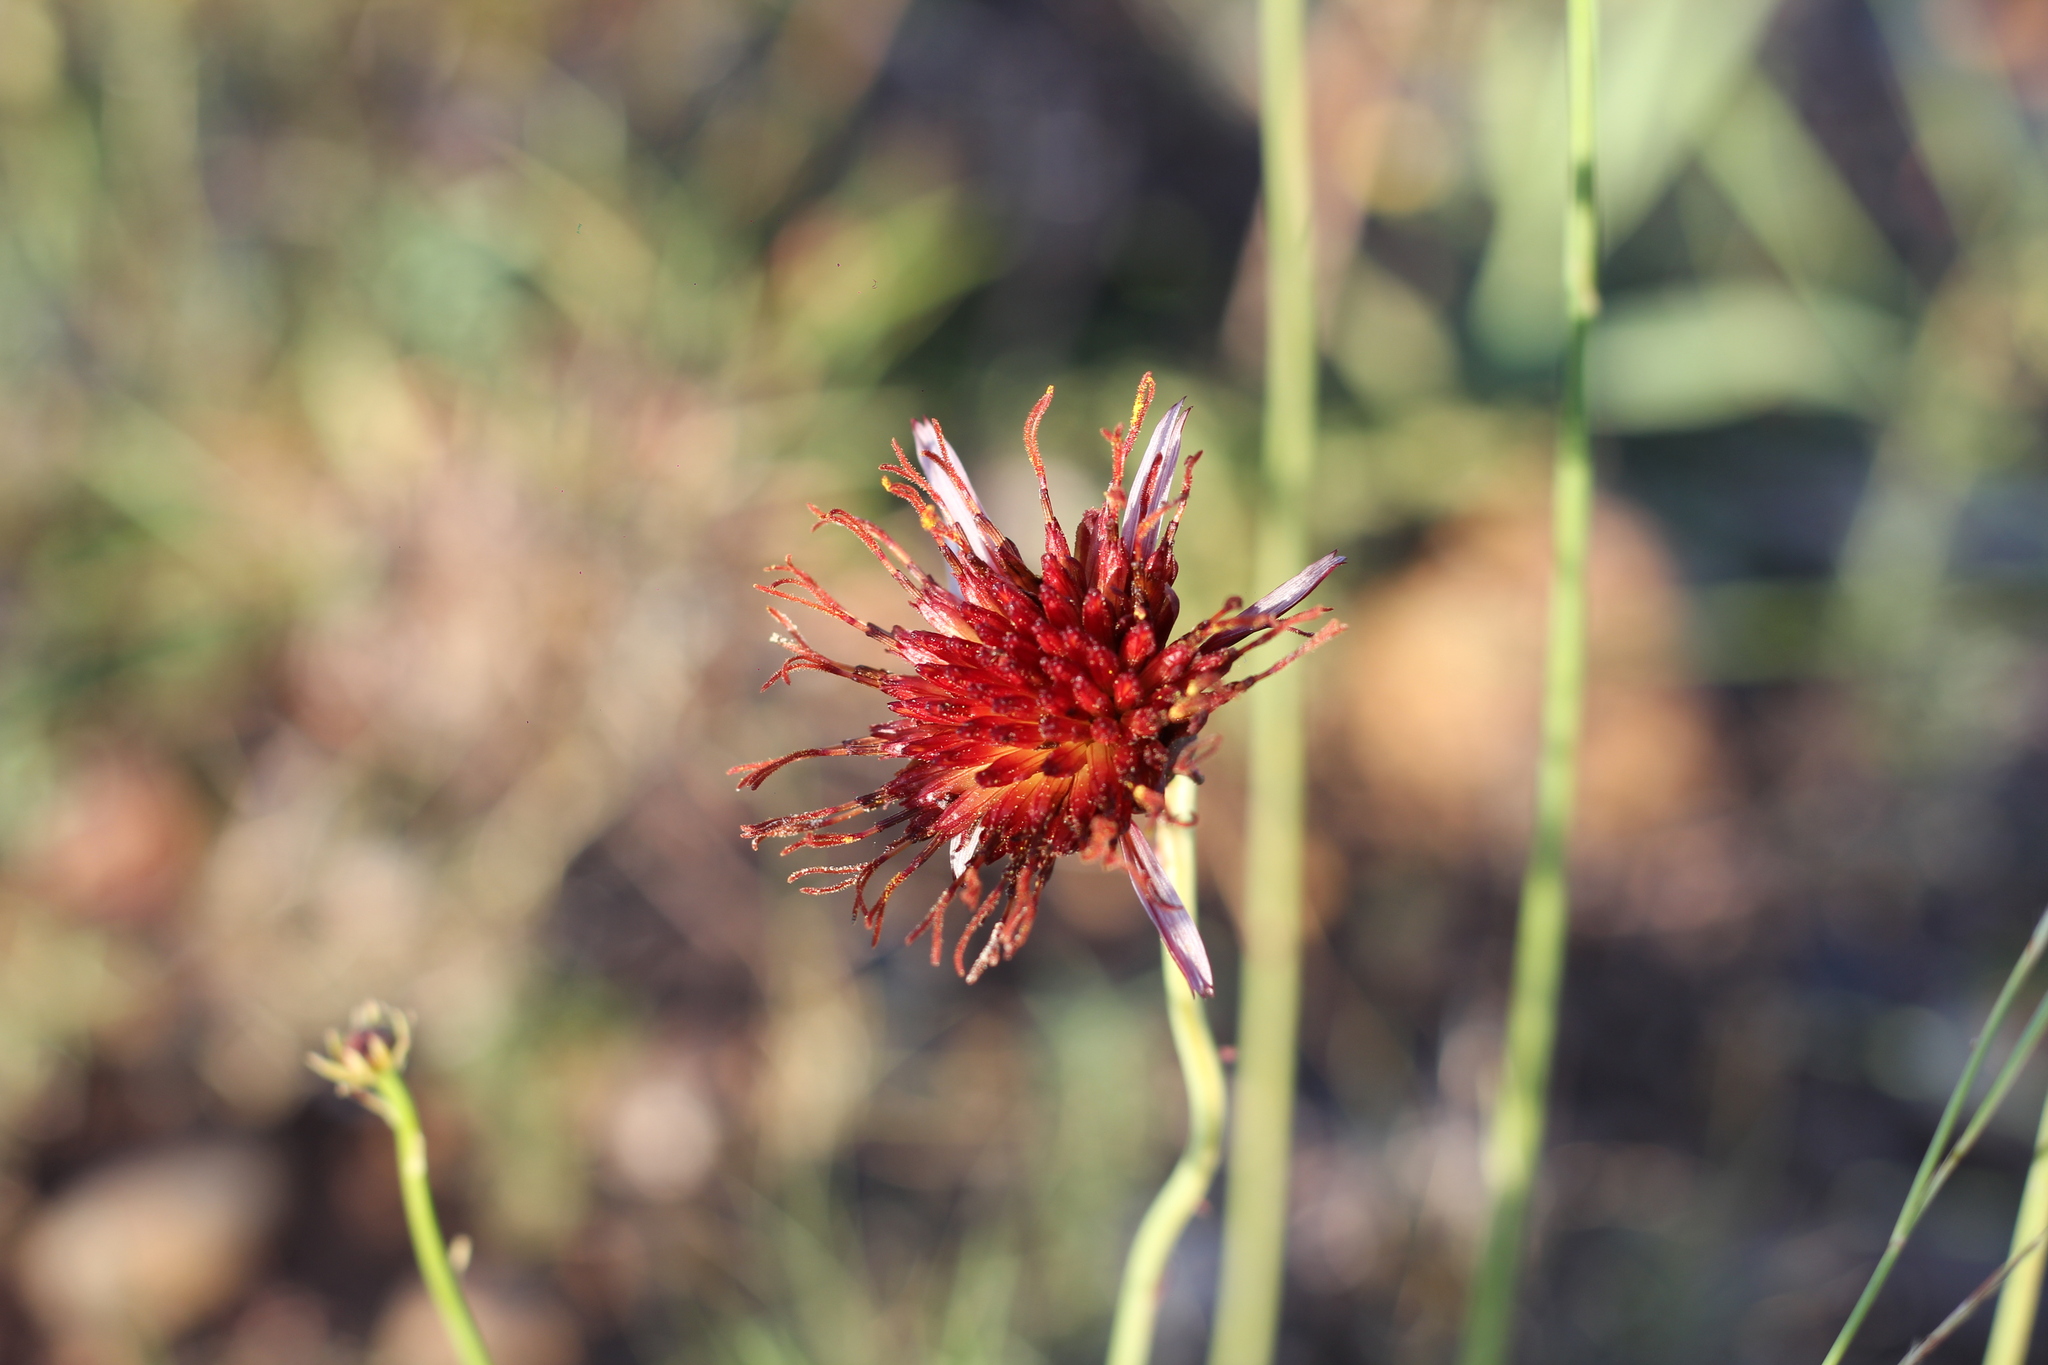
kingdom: Plantae
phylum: Tracheophyta
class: Magnoliopsida
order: Asterales
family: Asteraceae
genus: Isostigma
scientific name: Isostigma peucedanifolium
